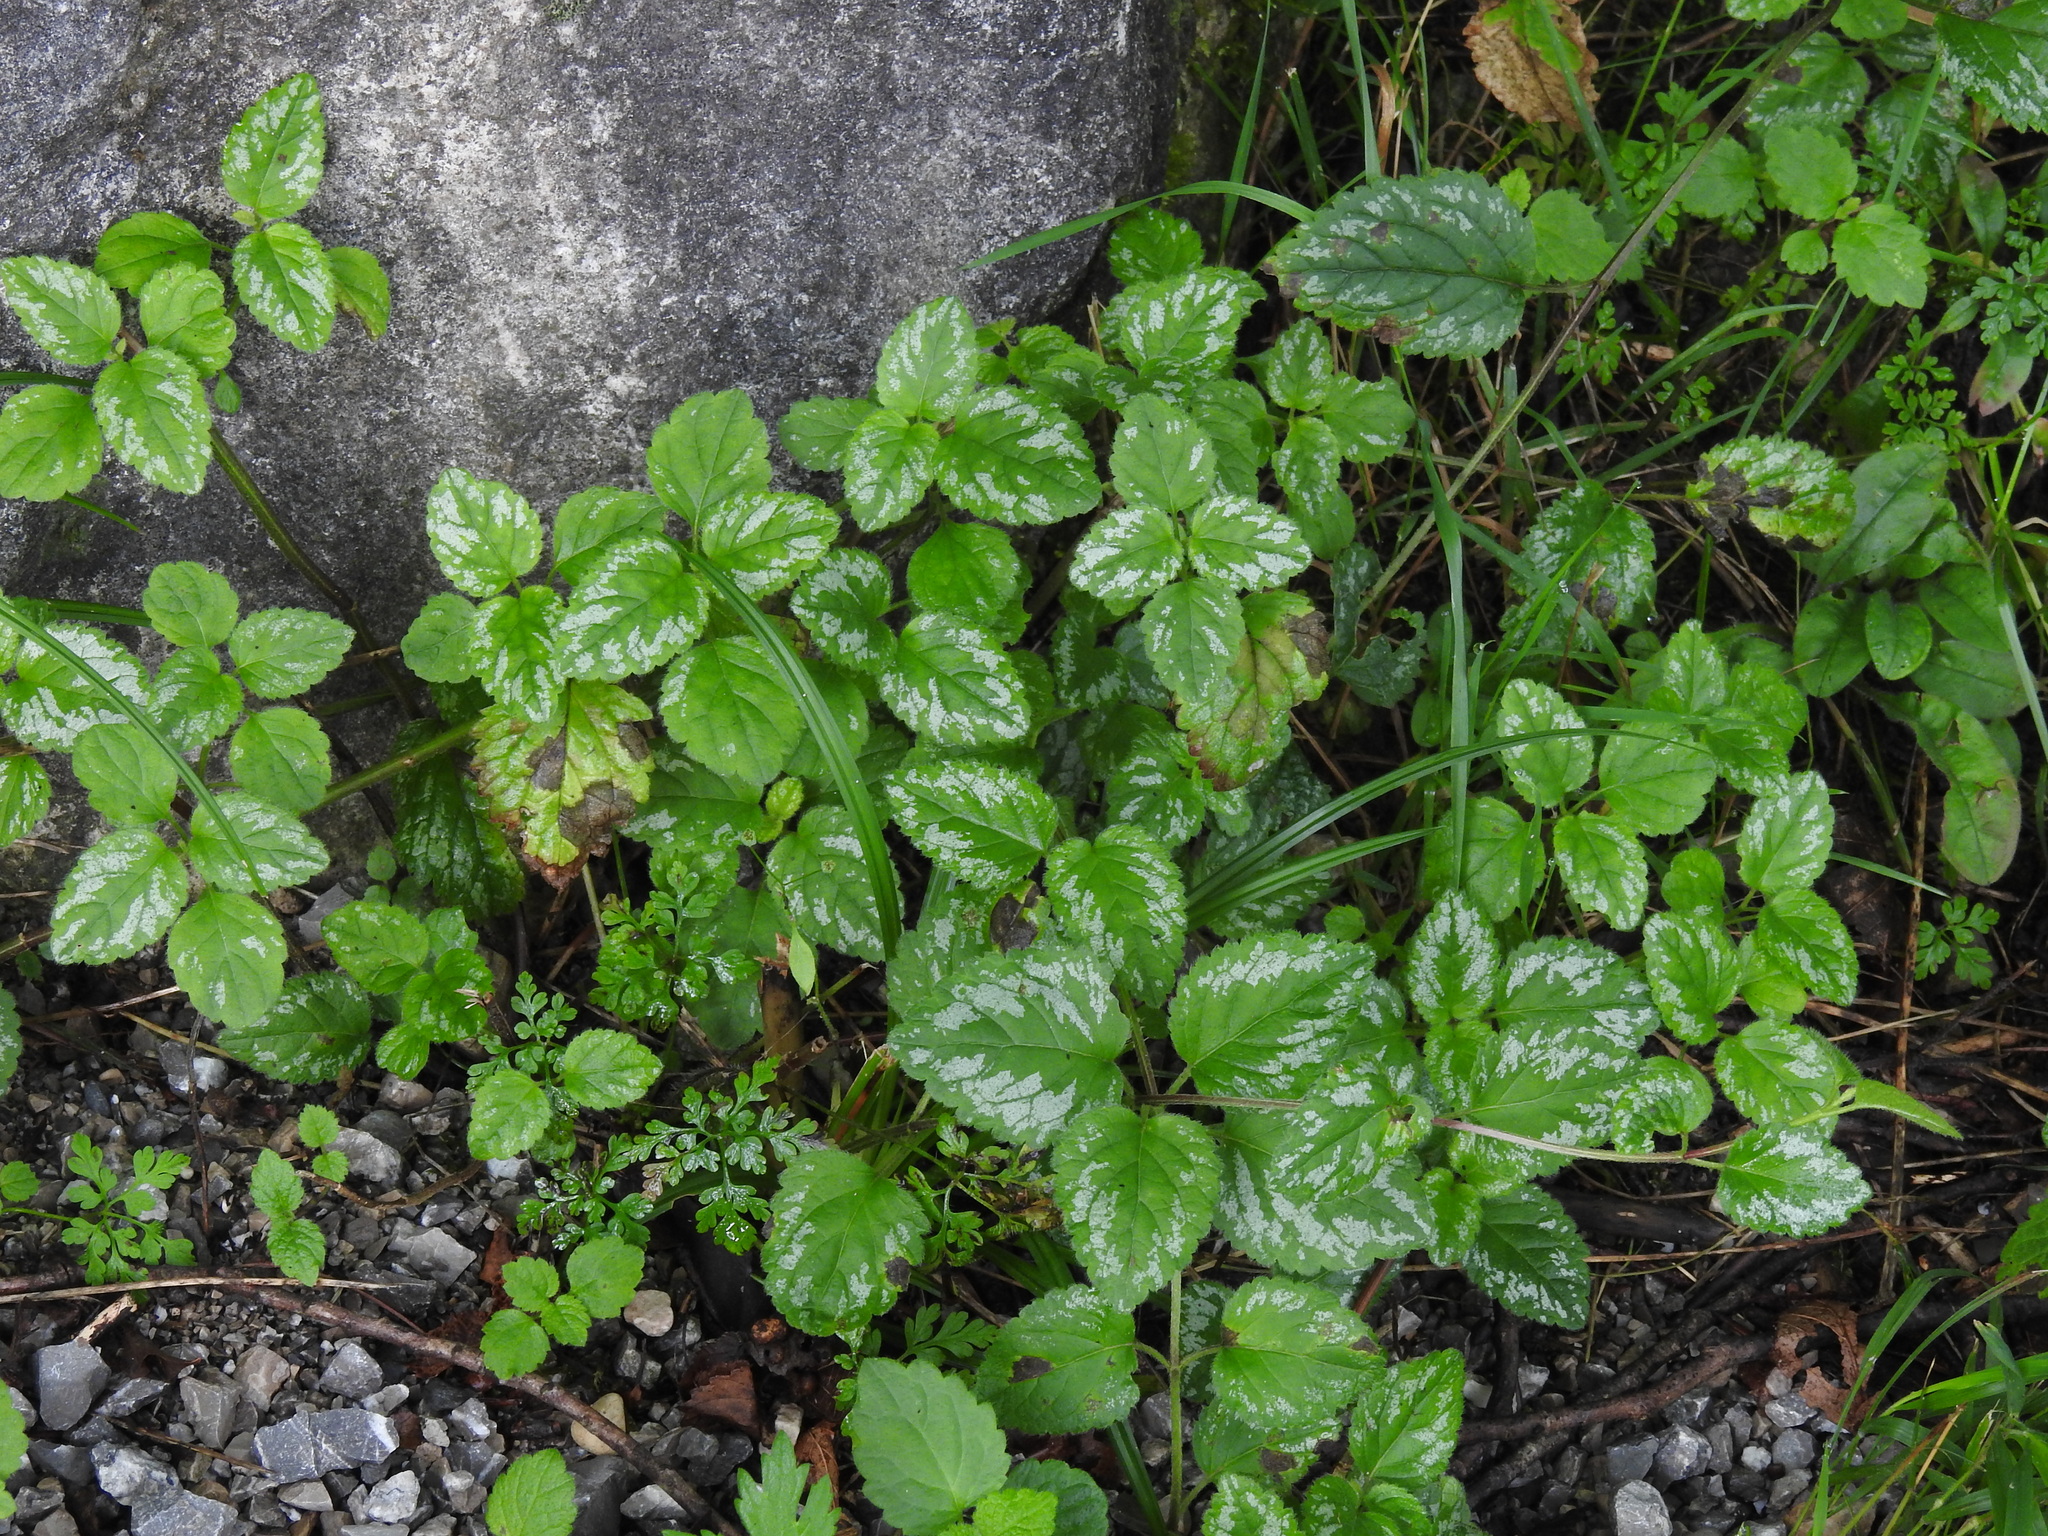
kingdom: Plantae
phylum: Tracheophyta
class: Magnoliopsida
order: Lamiales
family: Lamiaceae
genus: Lamium
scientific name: Lamium galeobdolon
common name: Yellow archangel
